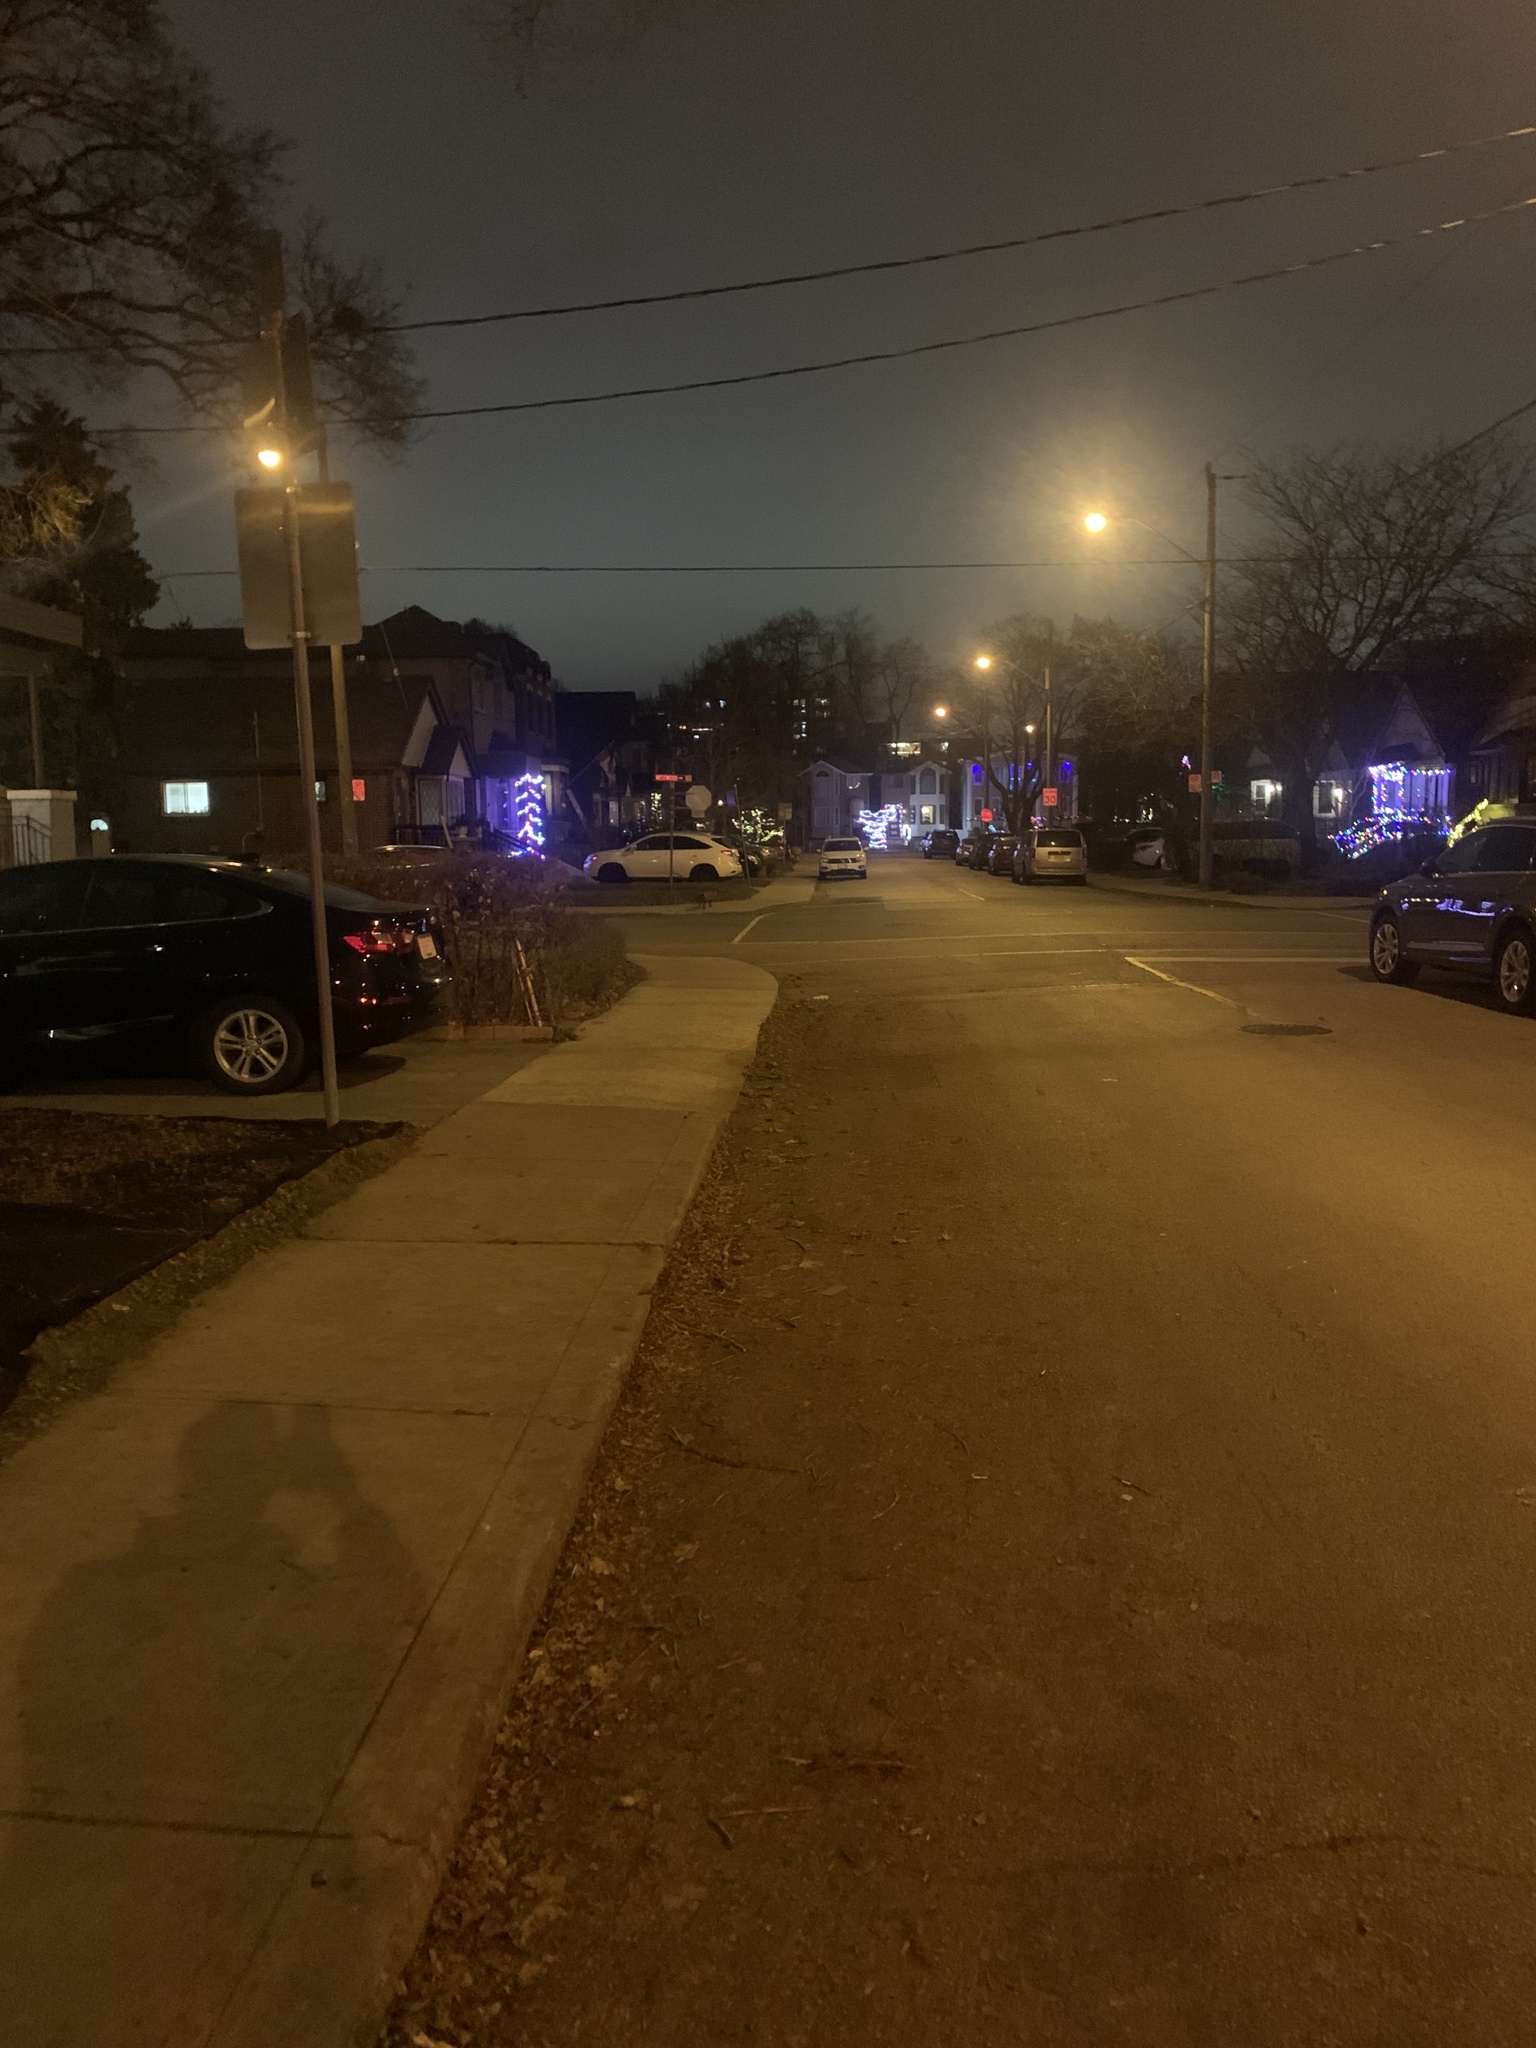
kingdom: Animalia
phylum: Chordata
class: Mammalia
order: Carnivora
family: Canidae
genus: Vulpes
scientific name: Vulpes vulpes
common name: Red fox
